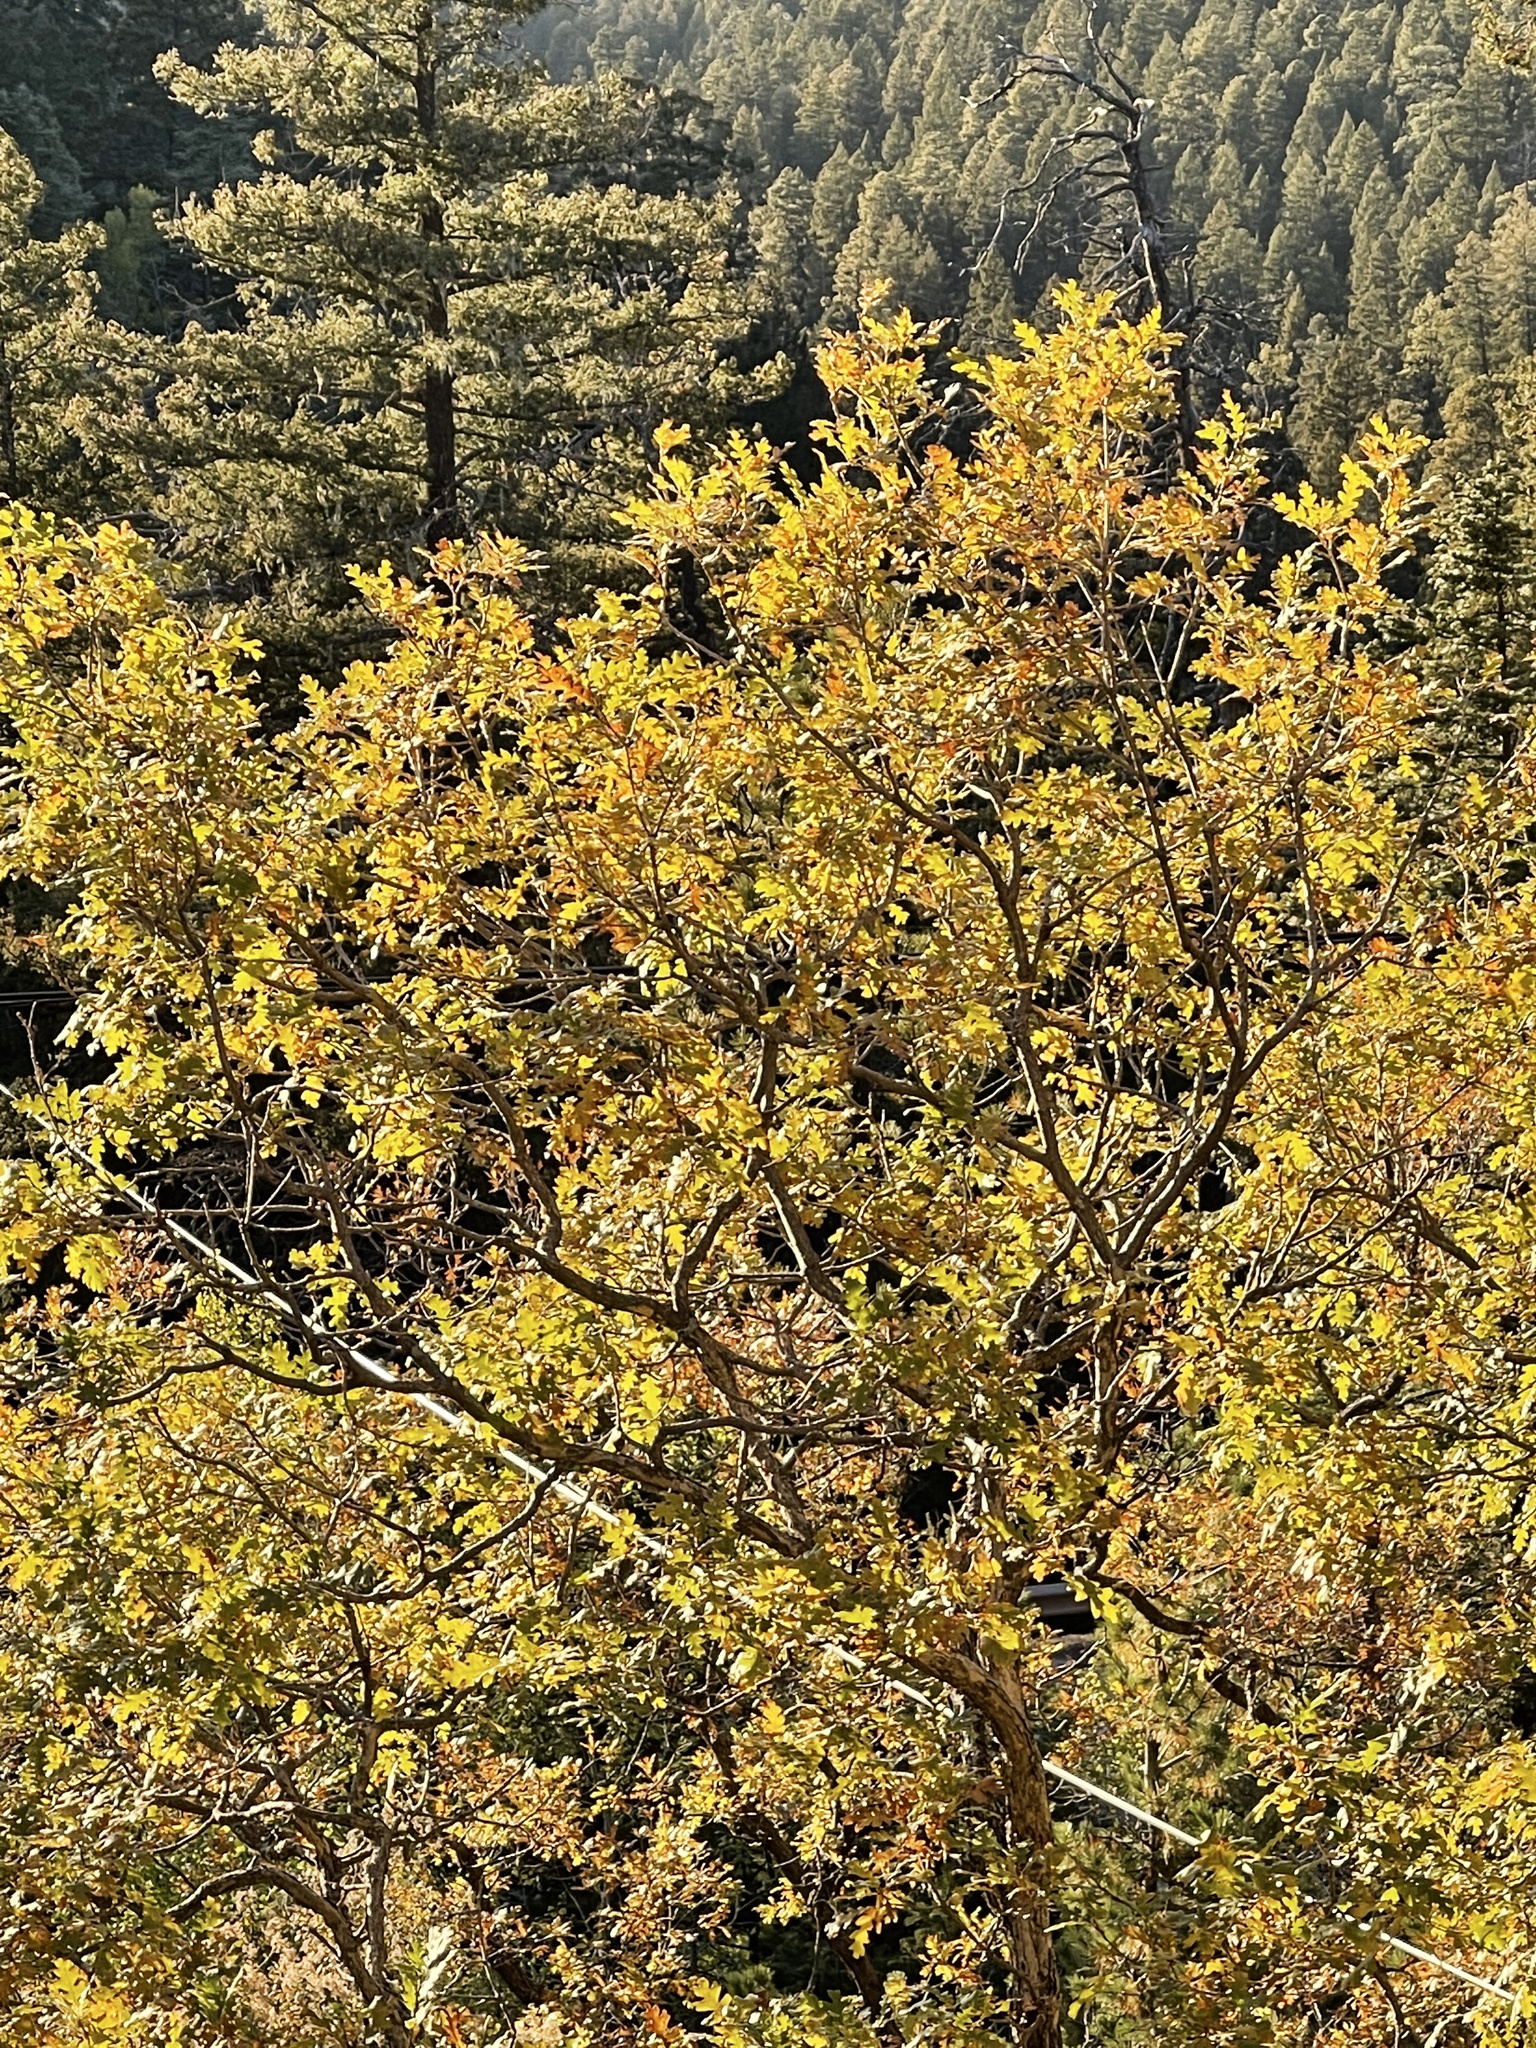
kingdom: Plantae
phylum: Tracheophyta
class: Magnoliopsida
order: Fagales
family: Fagaceae
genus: Quercus
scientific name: Quercus gambelii
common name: Gambel oak
